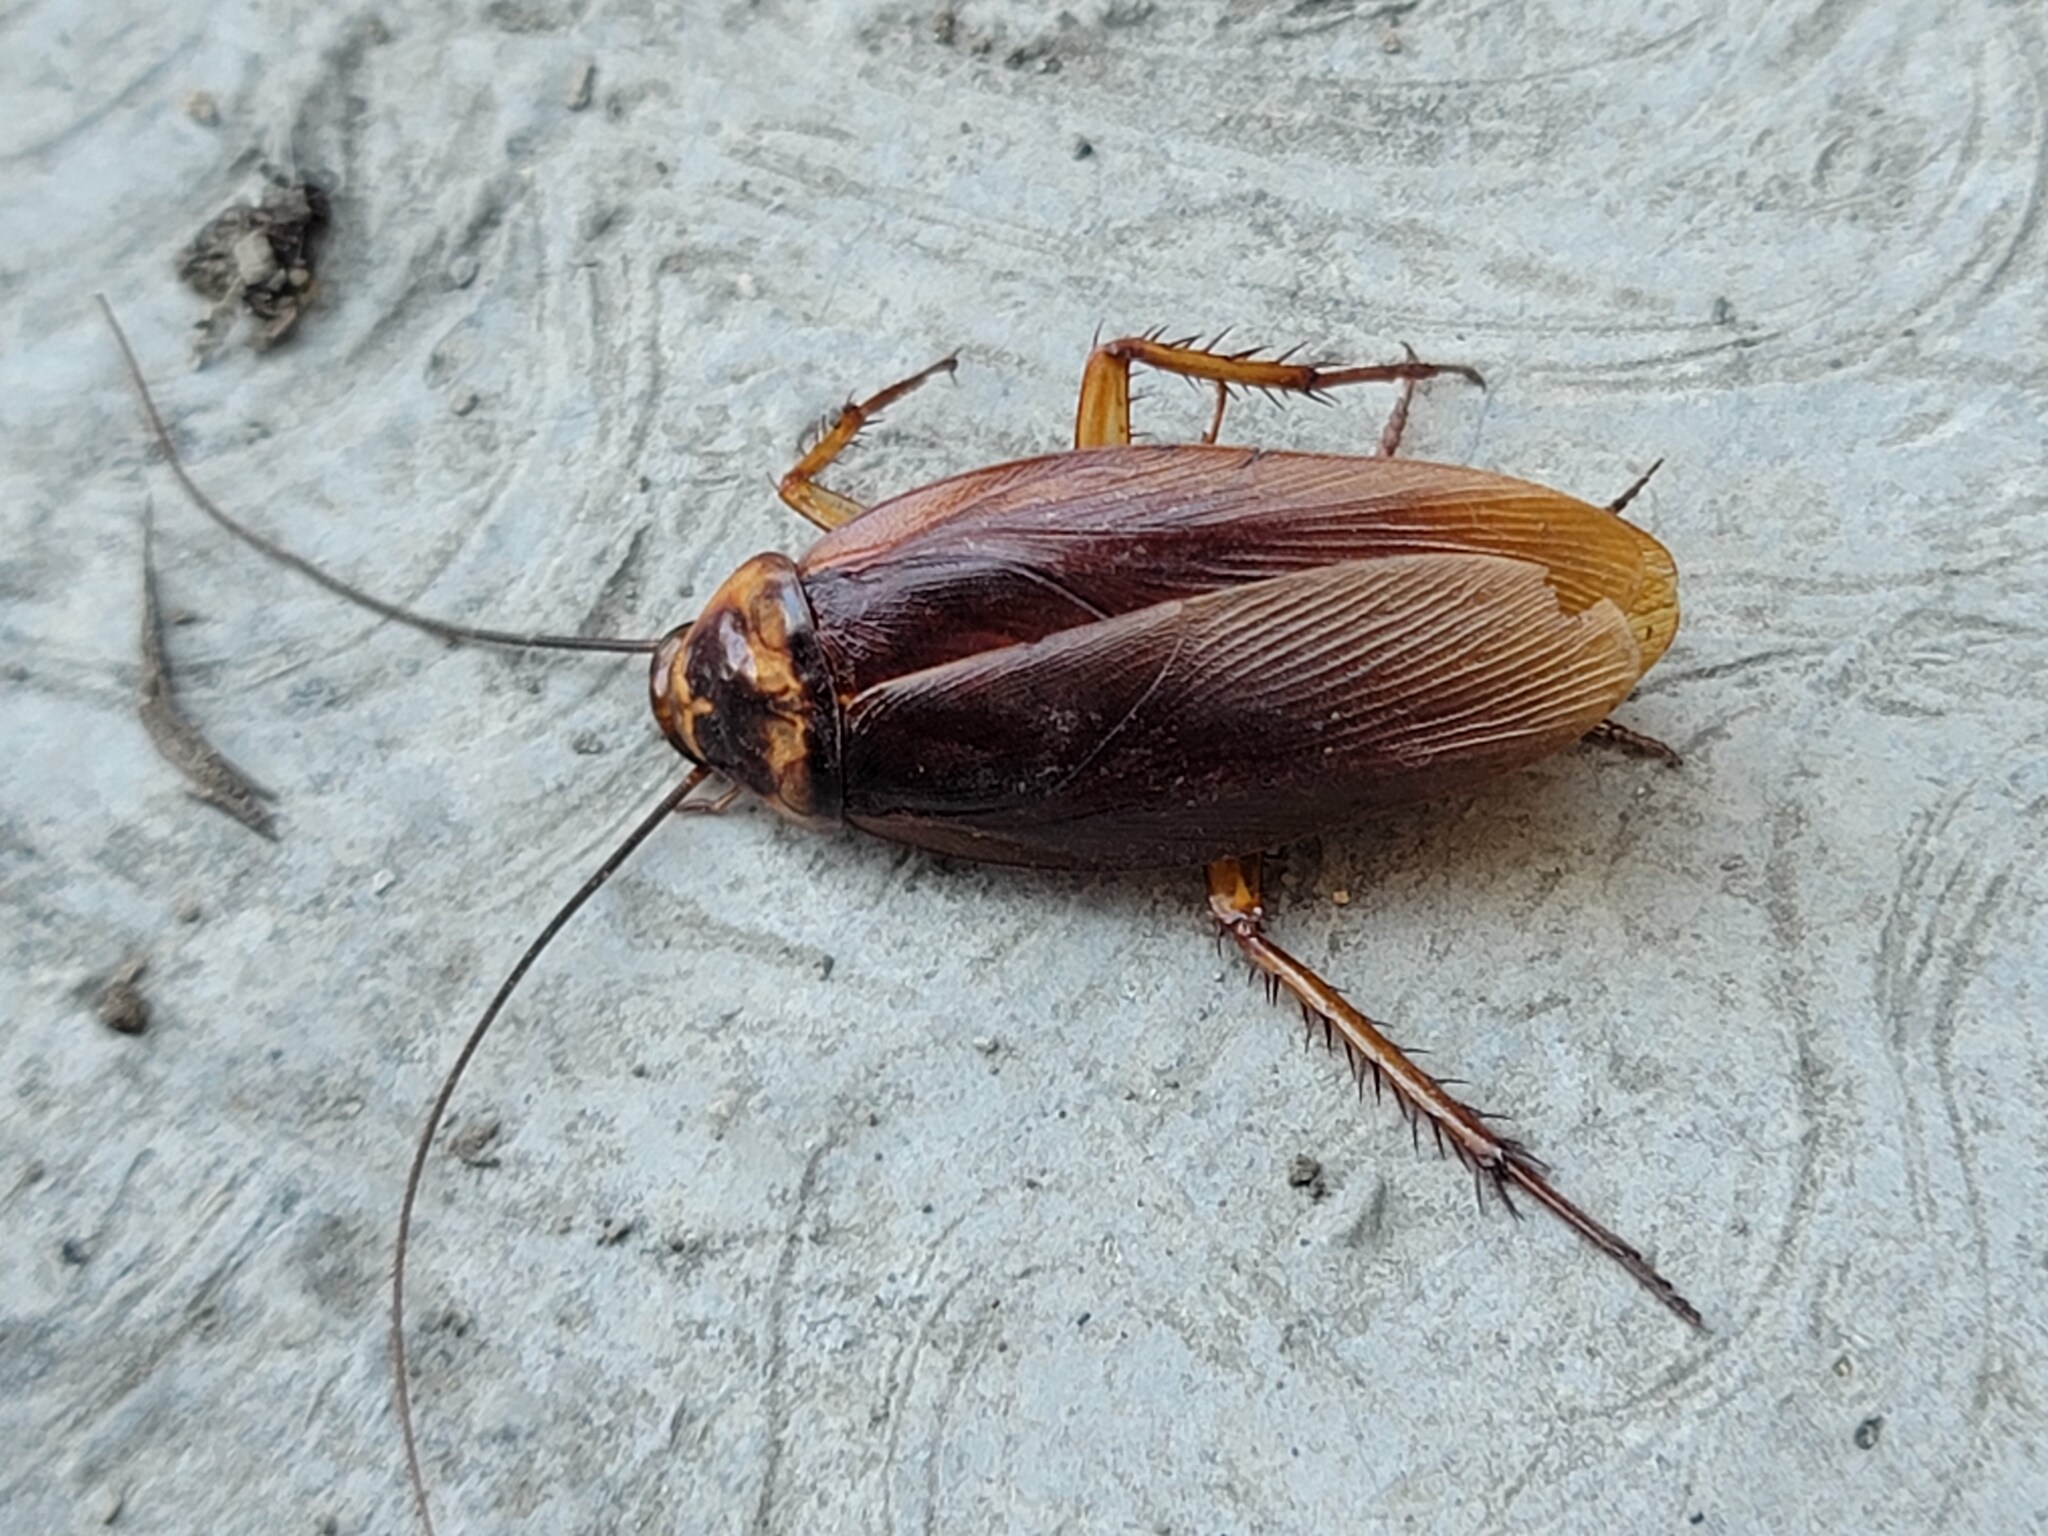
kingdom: Animalia
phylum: Arthropoda
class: Insecta
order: Blattodea
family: Blattidae
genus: Periplaneta
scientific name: Periplaneta americana
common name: American cockroach
